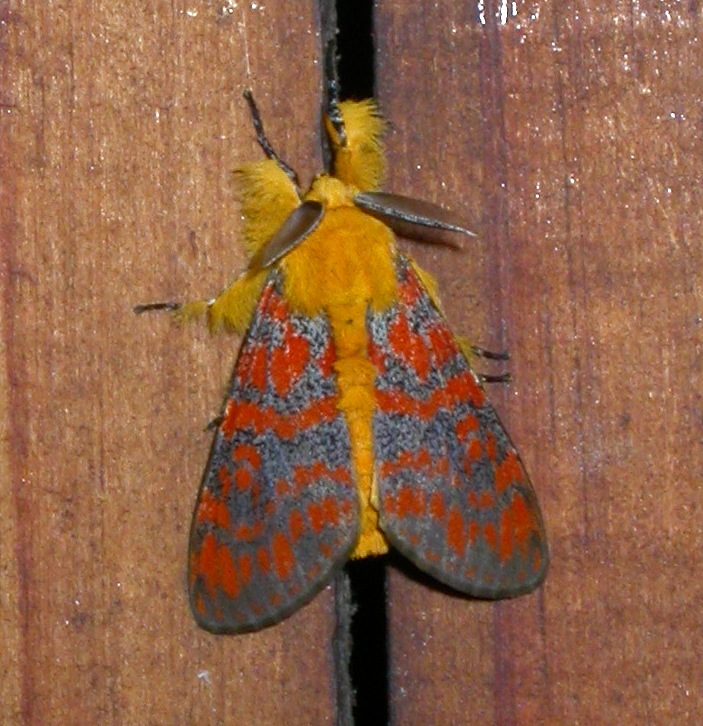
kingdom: Animalia
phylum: Arthropoda
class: Insecta
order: Lepidoptera
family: Erebidae
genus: Dasychira
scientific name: Dasychira gentilis
